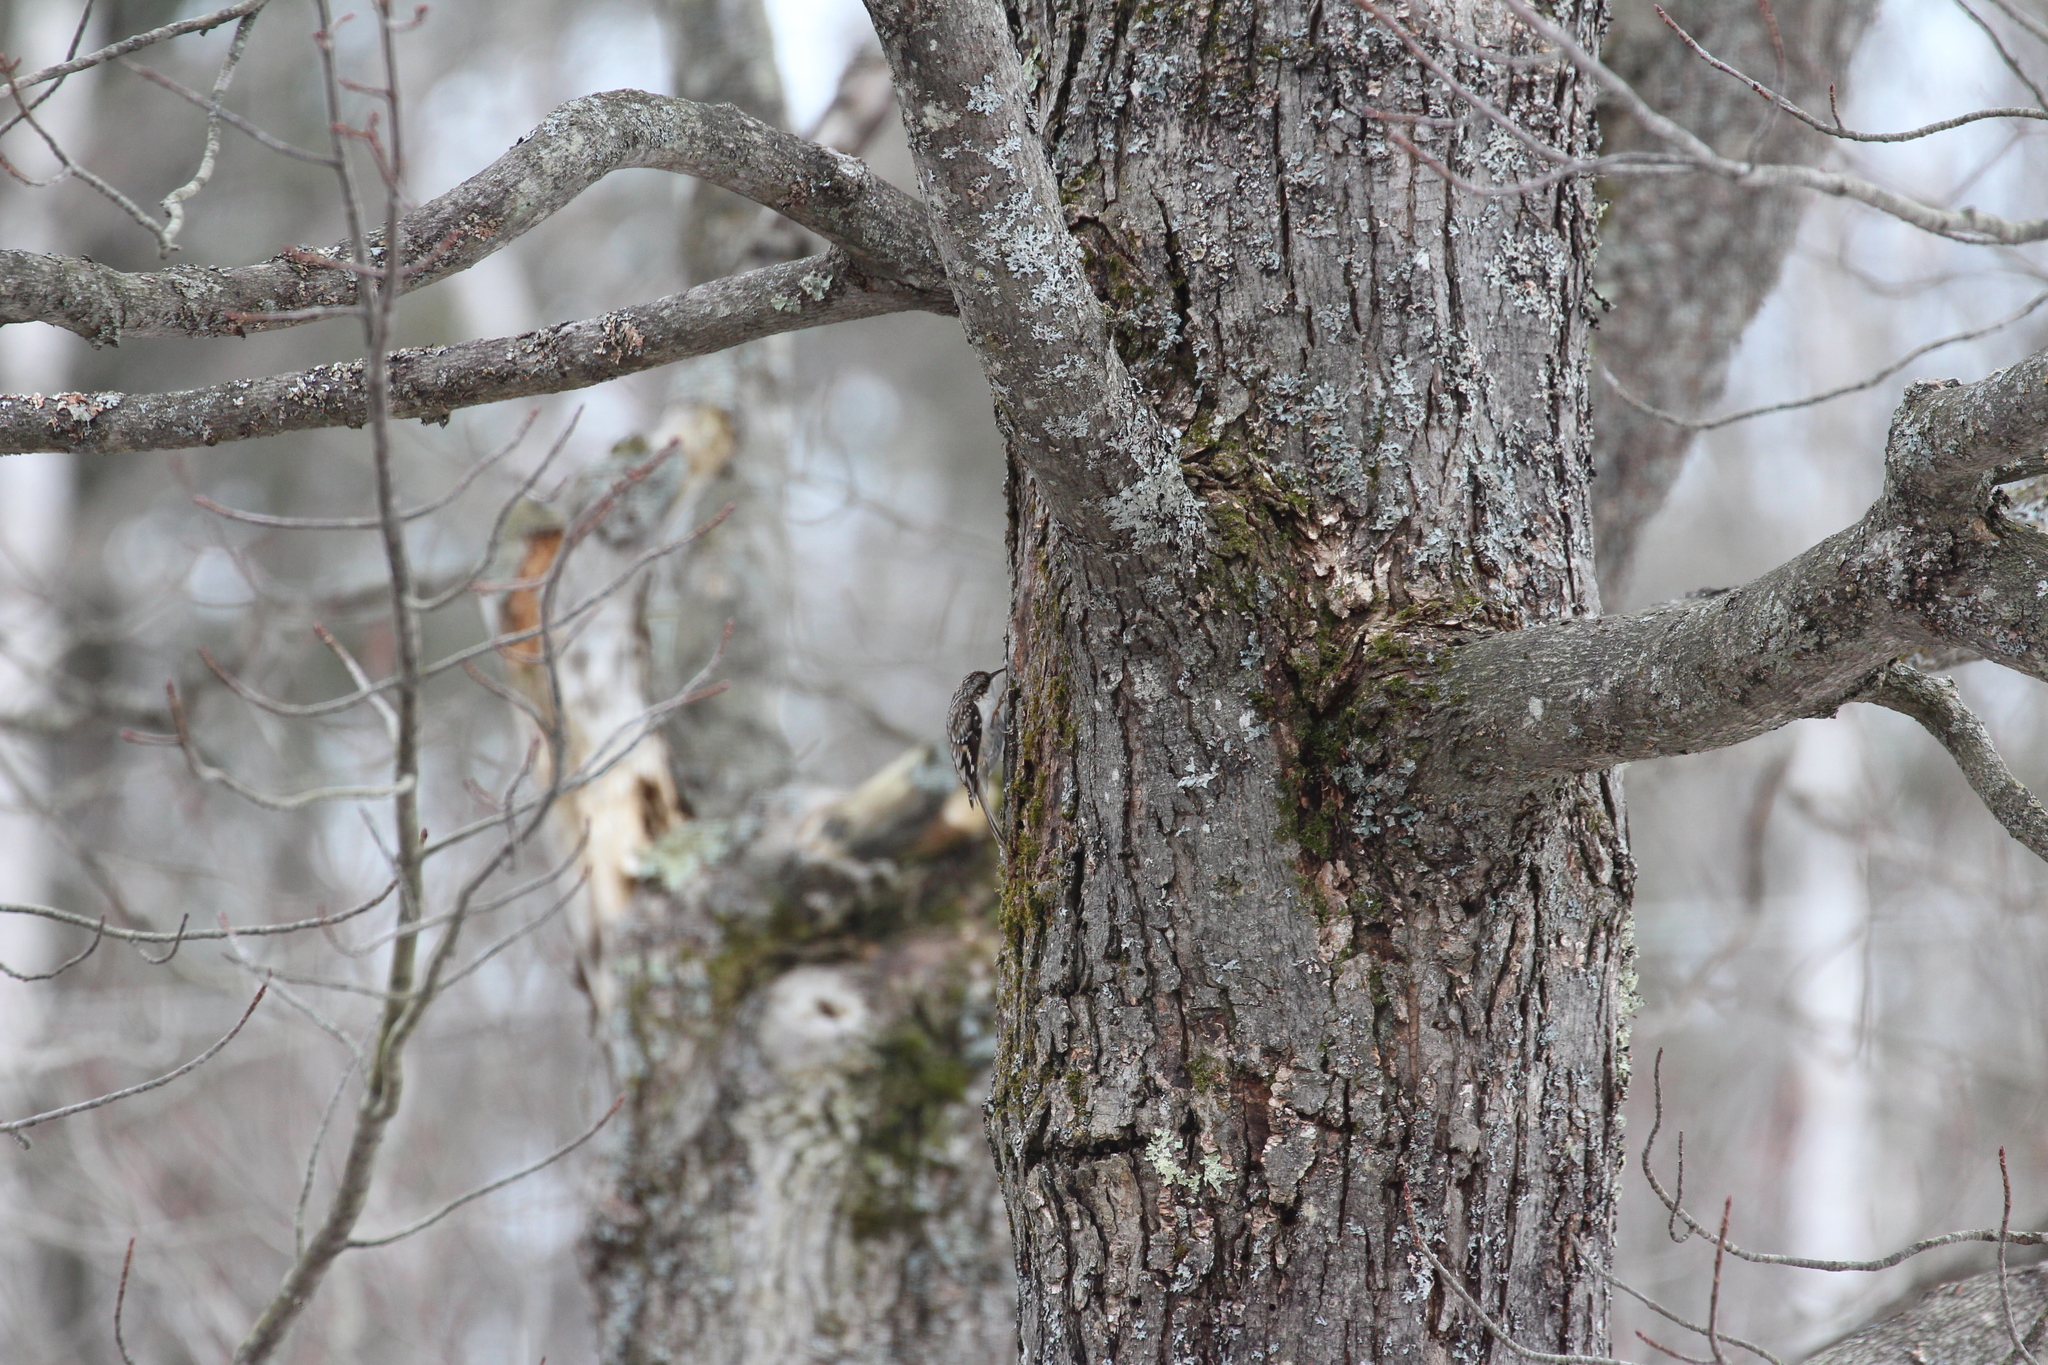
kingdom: Animalia
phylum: Chordata
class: Aves
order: Passeriformes
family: Certhiidae
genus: Certhia
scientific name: Certhia americana
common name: Brown creeper
